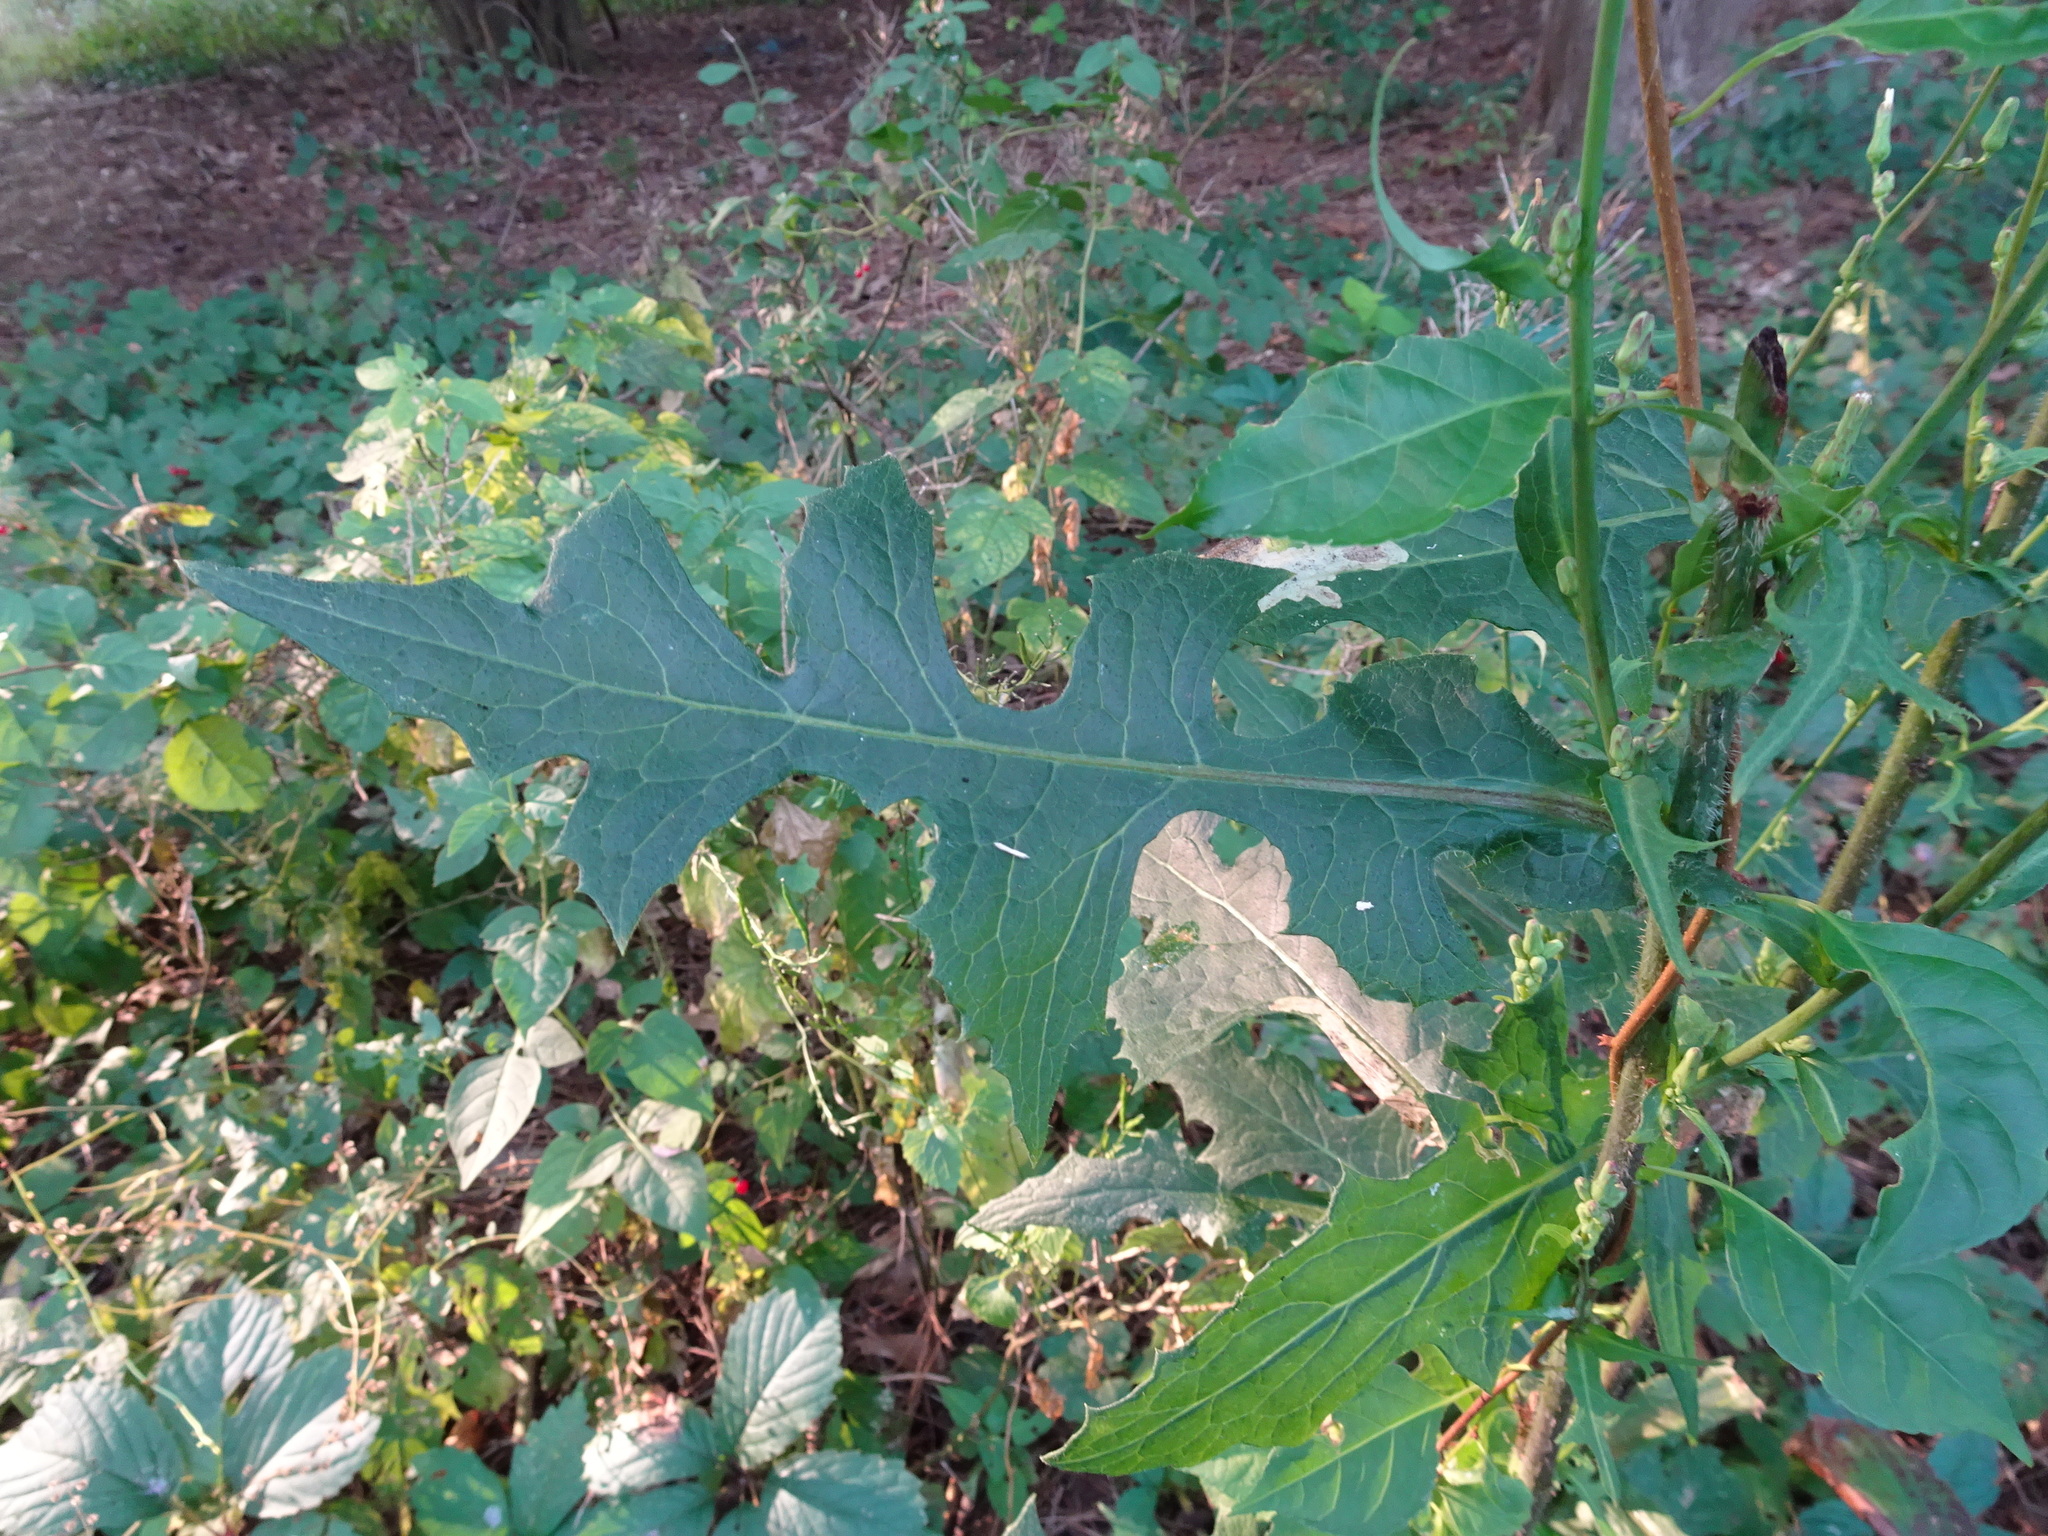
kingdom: Plantae
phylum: Tracheophyta
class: Magnoliopsida
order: Asterales
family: Asteraceae
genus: Lactuca
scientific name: Lactuca biennis
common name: Blue wood lettuce
